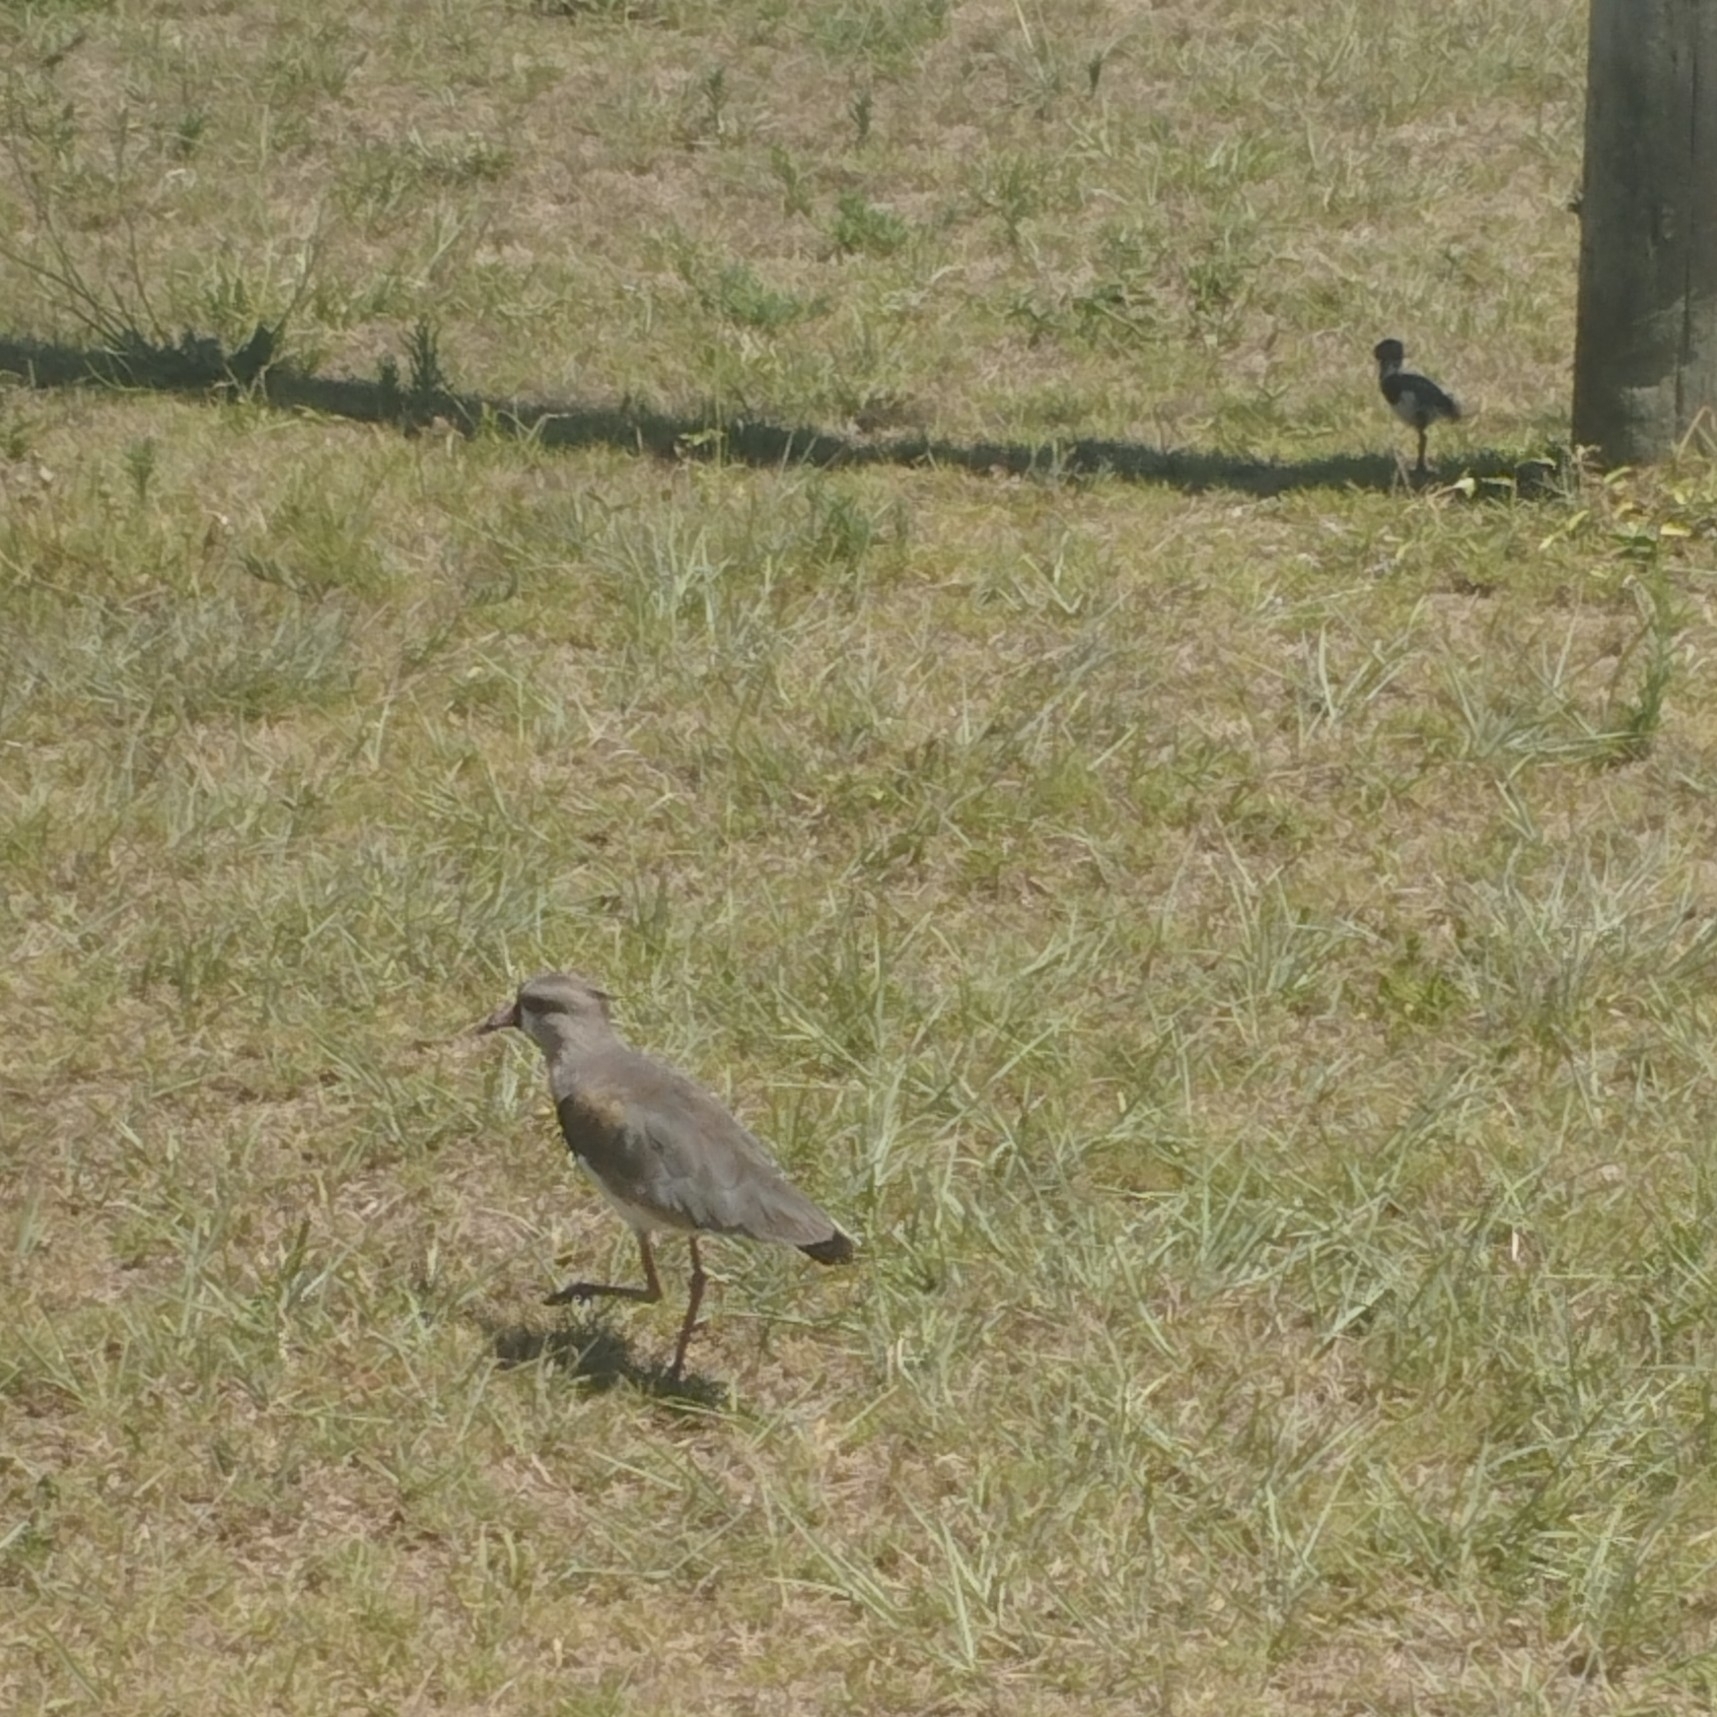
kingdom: Animalia
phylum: Chordata
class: Aves
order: Charadriiformes
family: Charadriidae
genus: Vanellus
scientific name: Vanellus chilensis
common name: Southern lapwing
